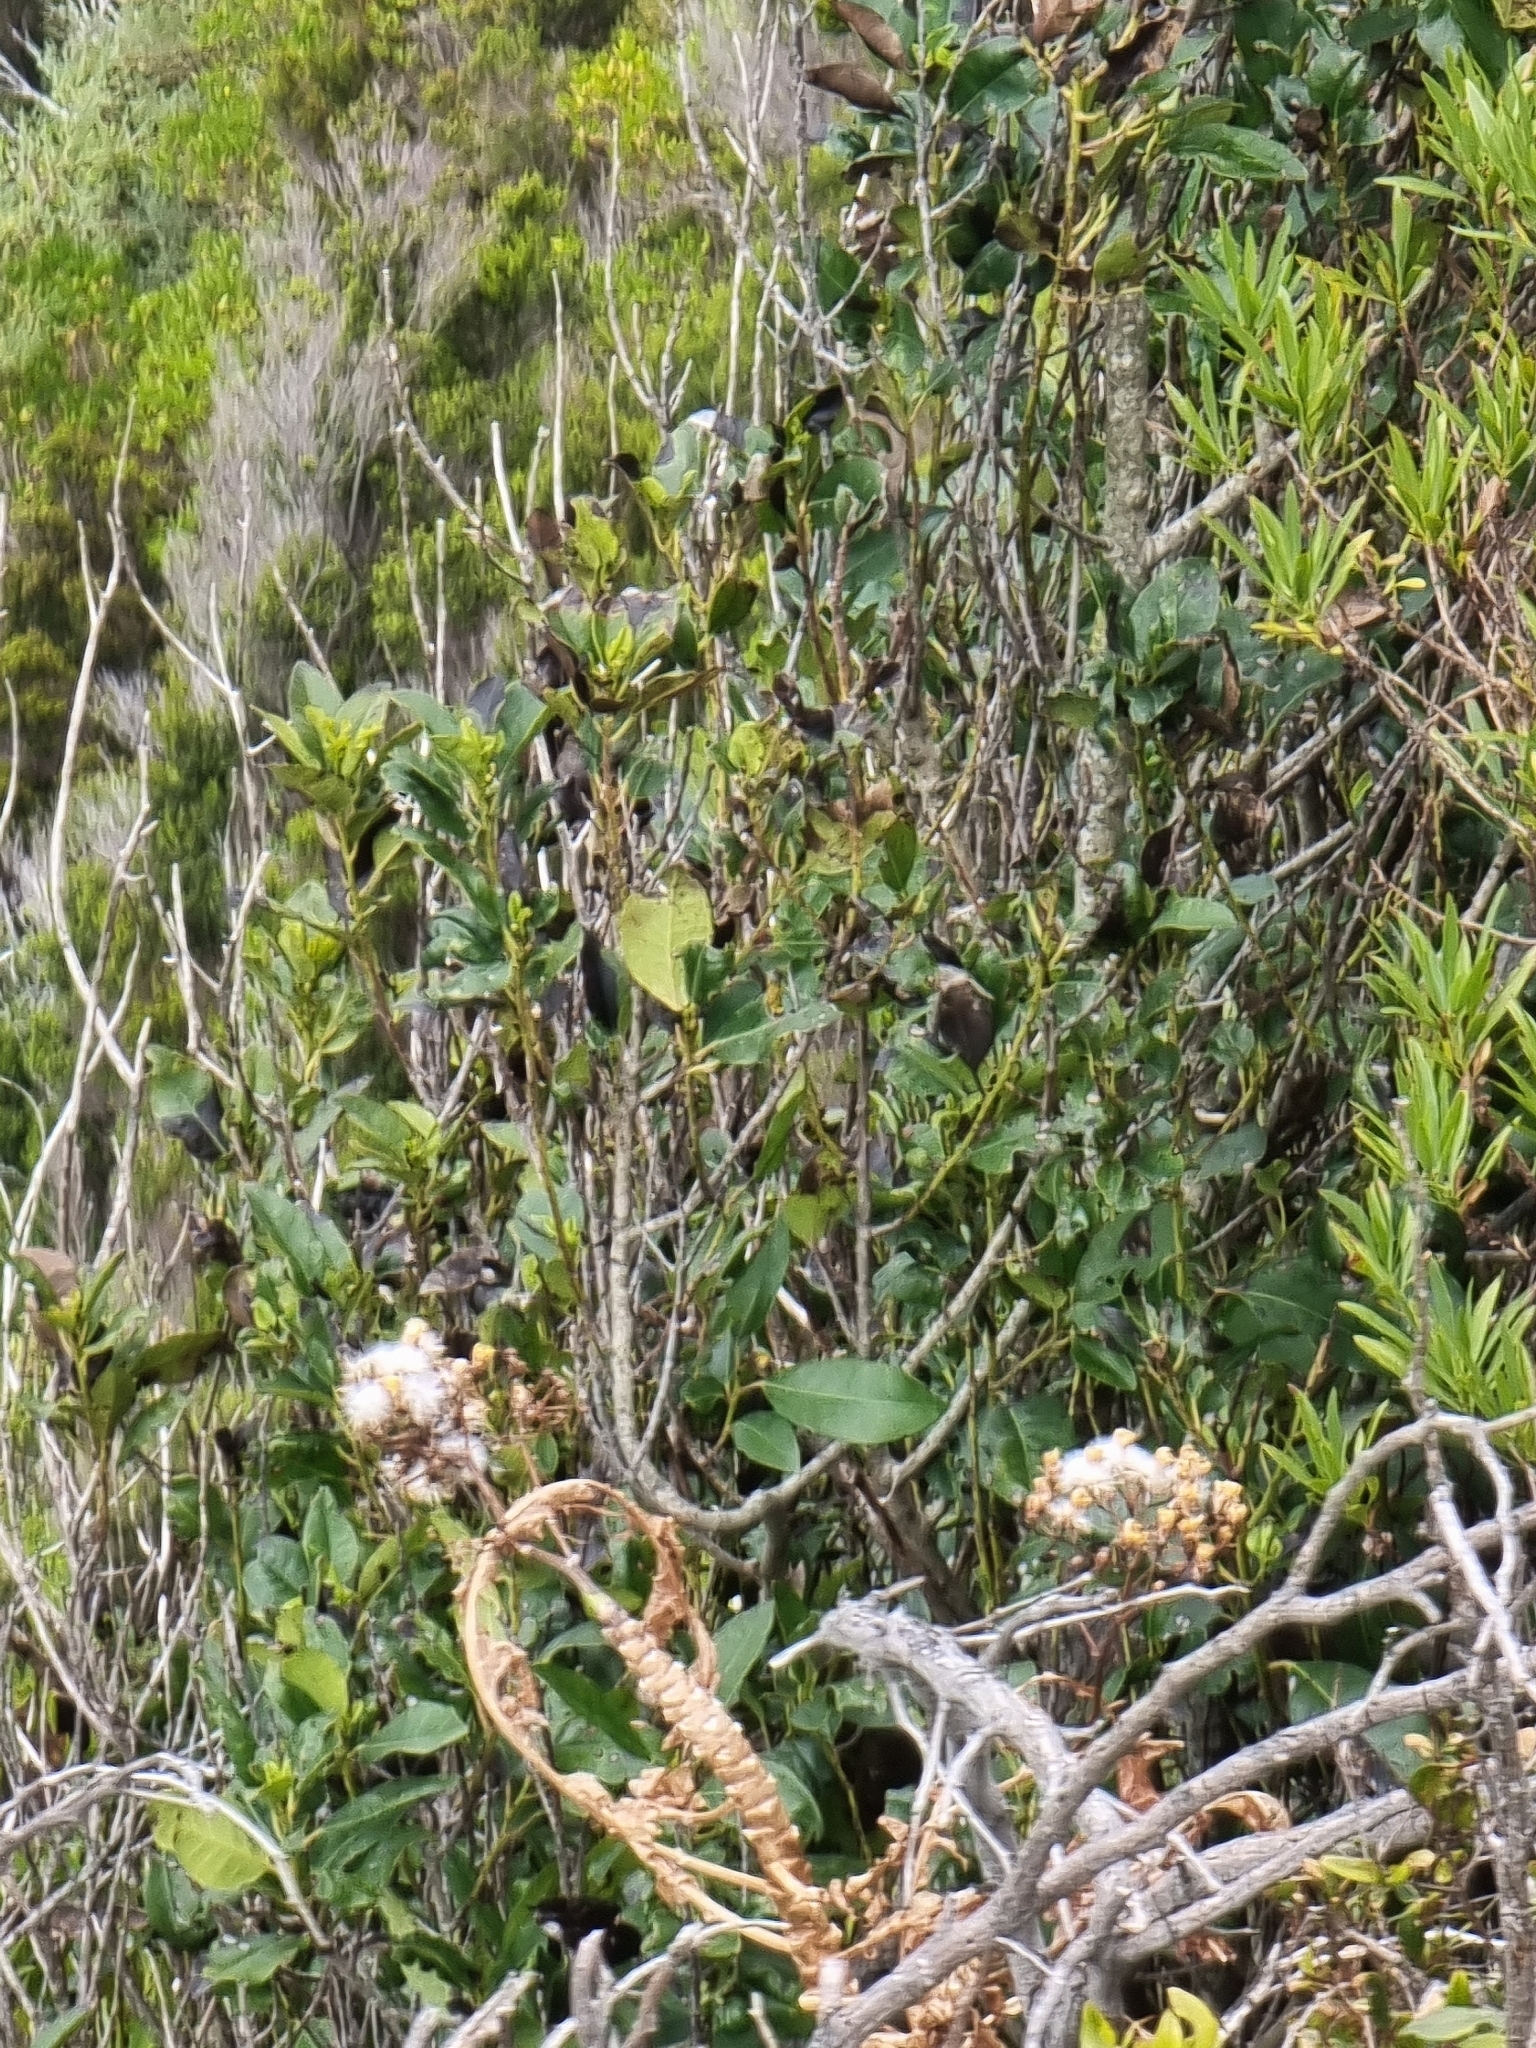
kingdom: Plantae
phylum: Tracheophyta
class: Magnoliopsida
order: Aquifoliales
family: Aquifoliaceae
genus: Ilex
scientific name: Ilex canariensis
